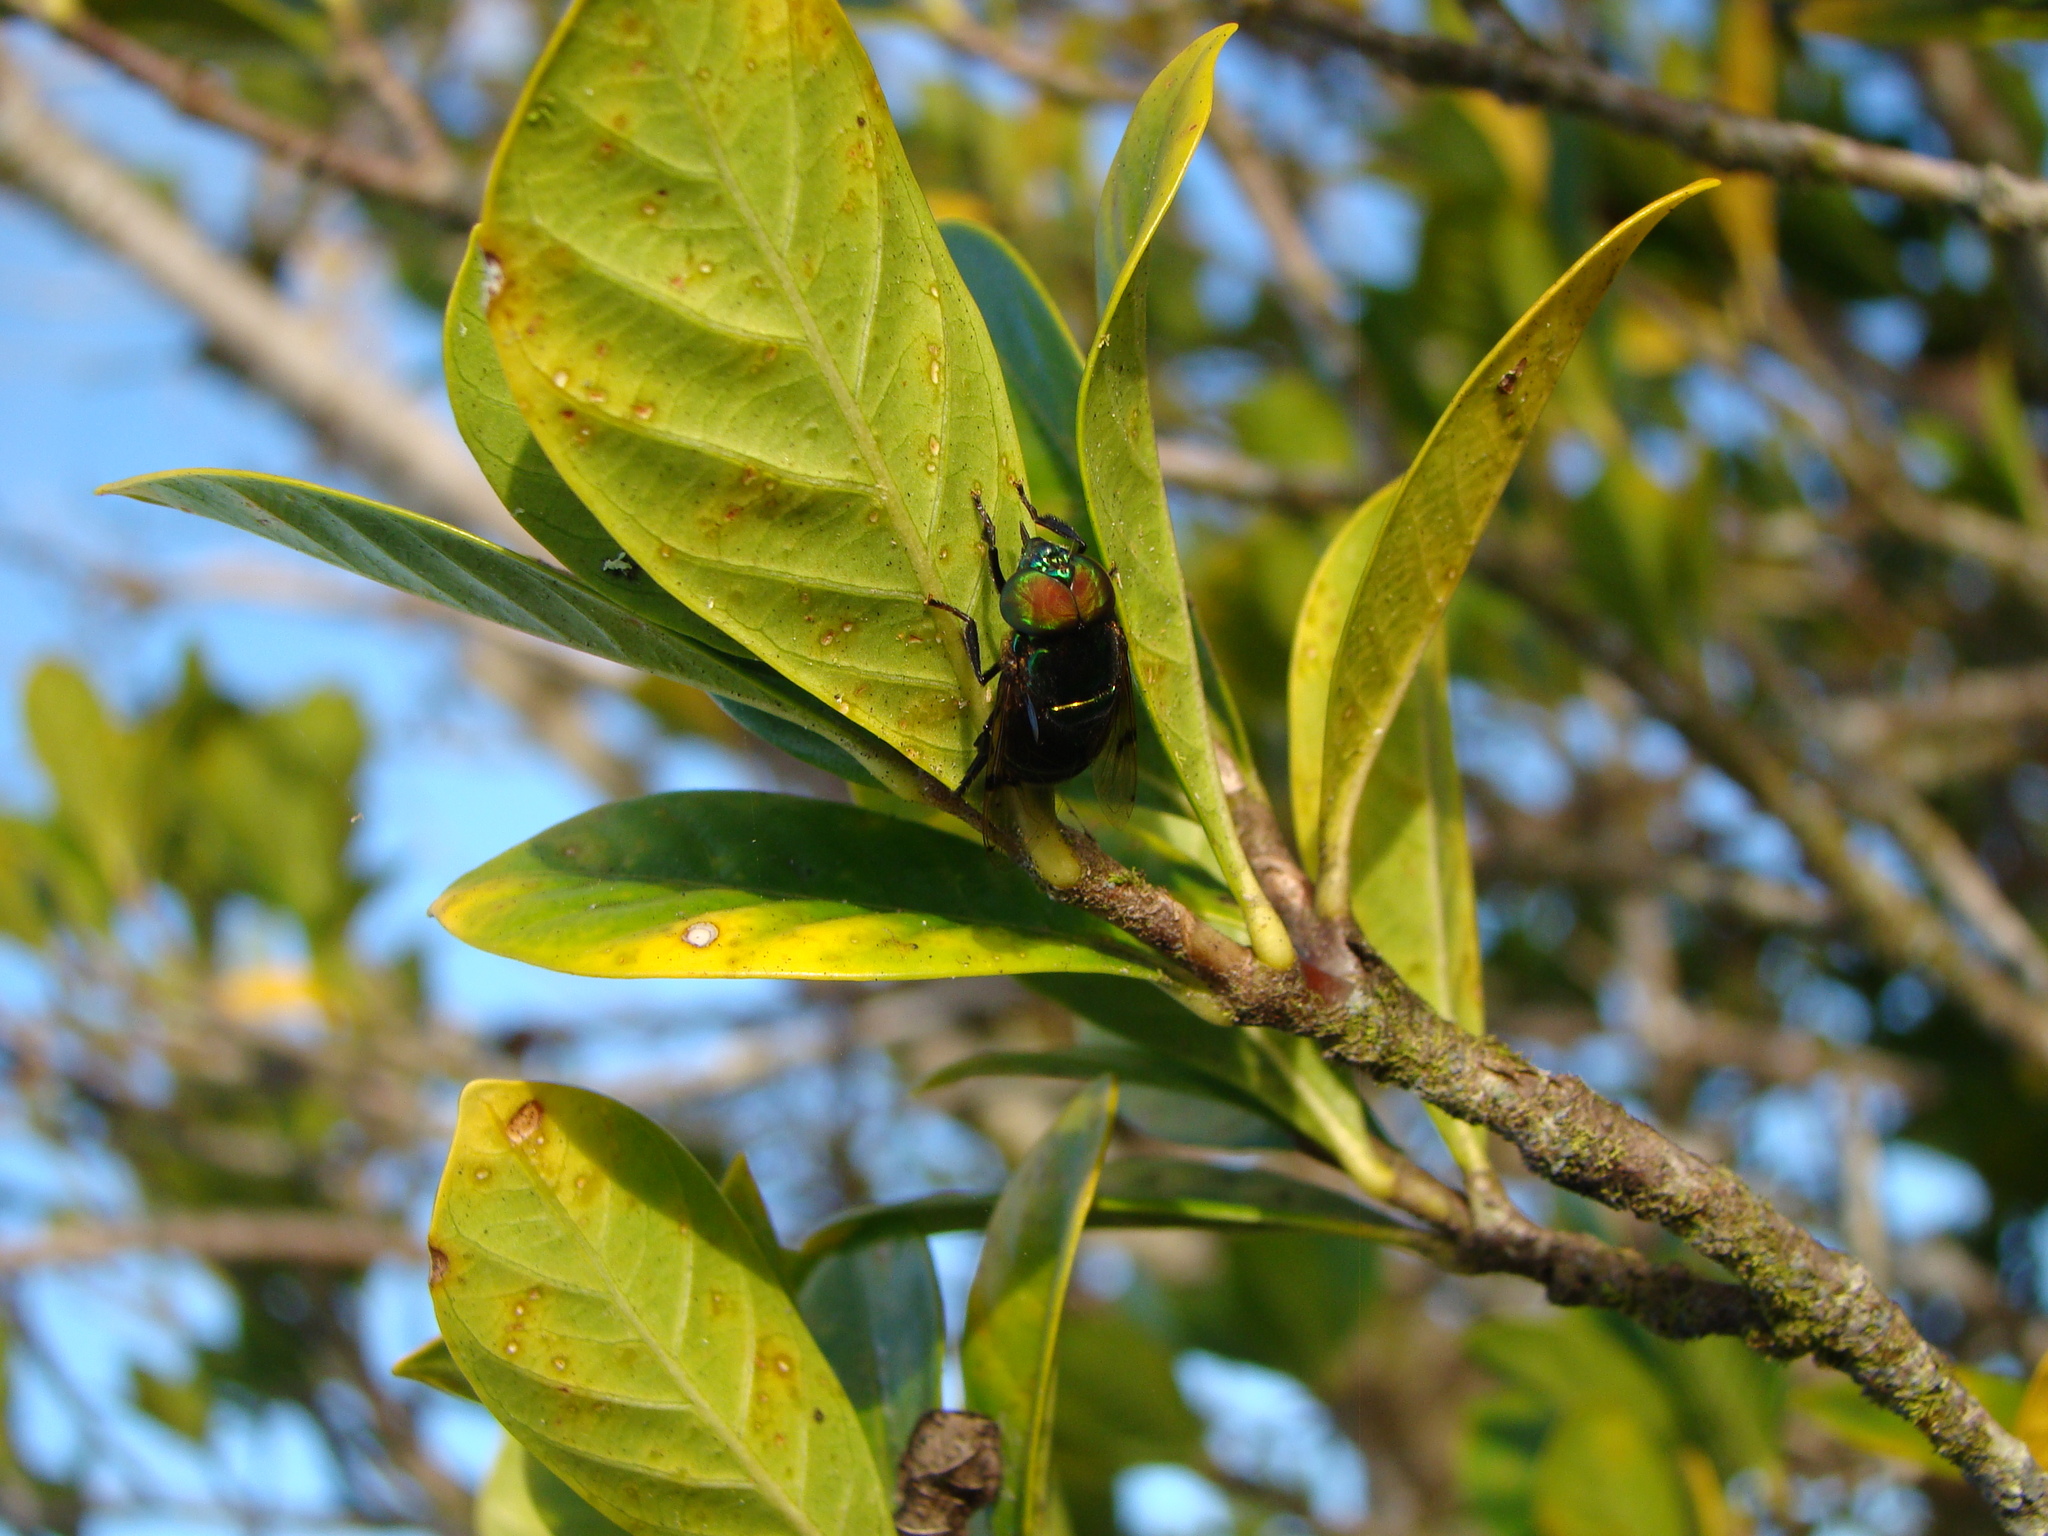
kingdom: Animalia
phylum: Arthropoda
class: Insecta
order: Diptera
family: Syrphidae
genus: Ornidia
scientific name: Ornidia obesa
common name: Syrphid fly
